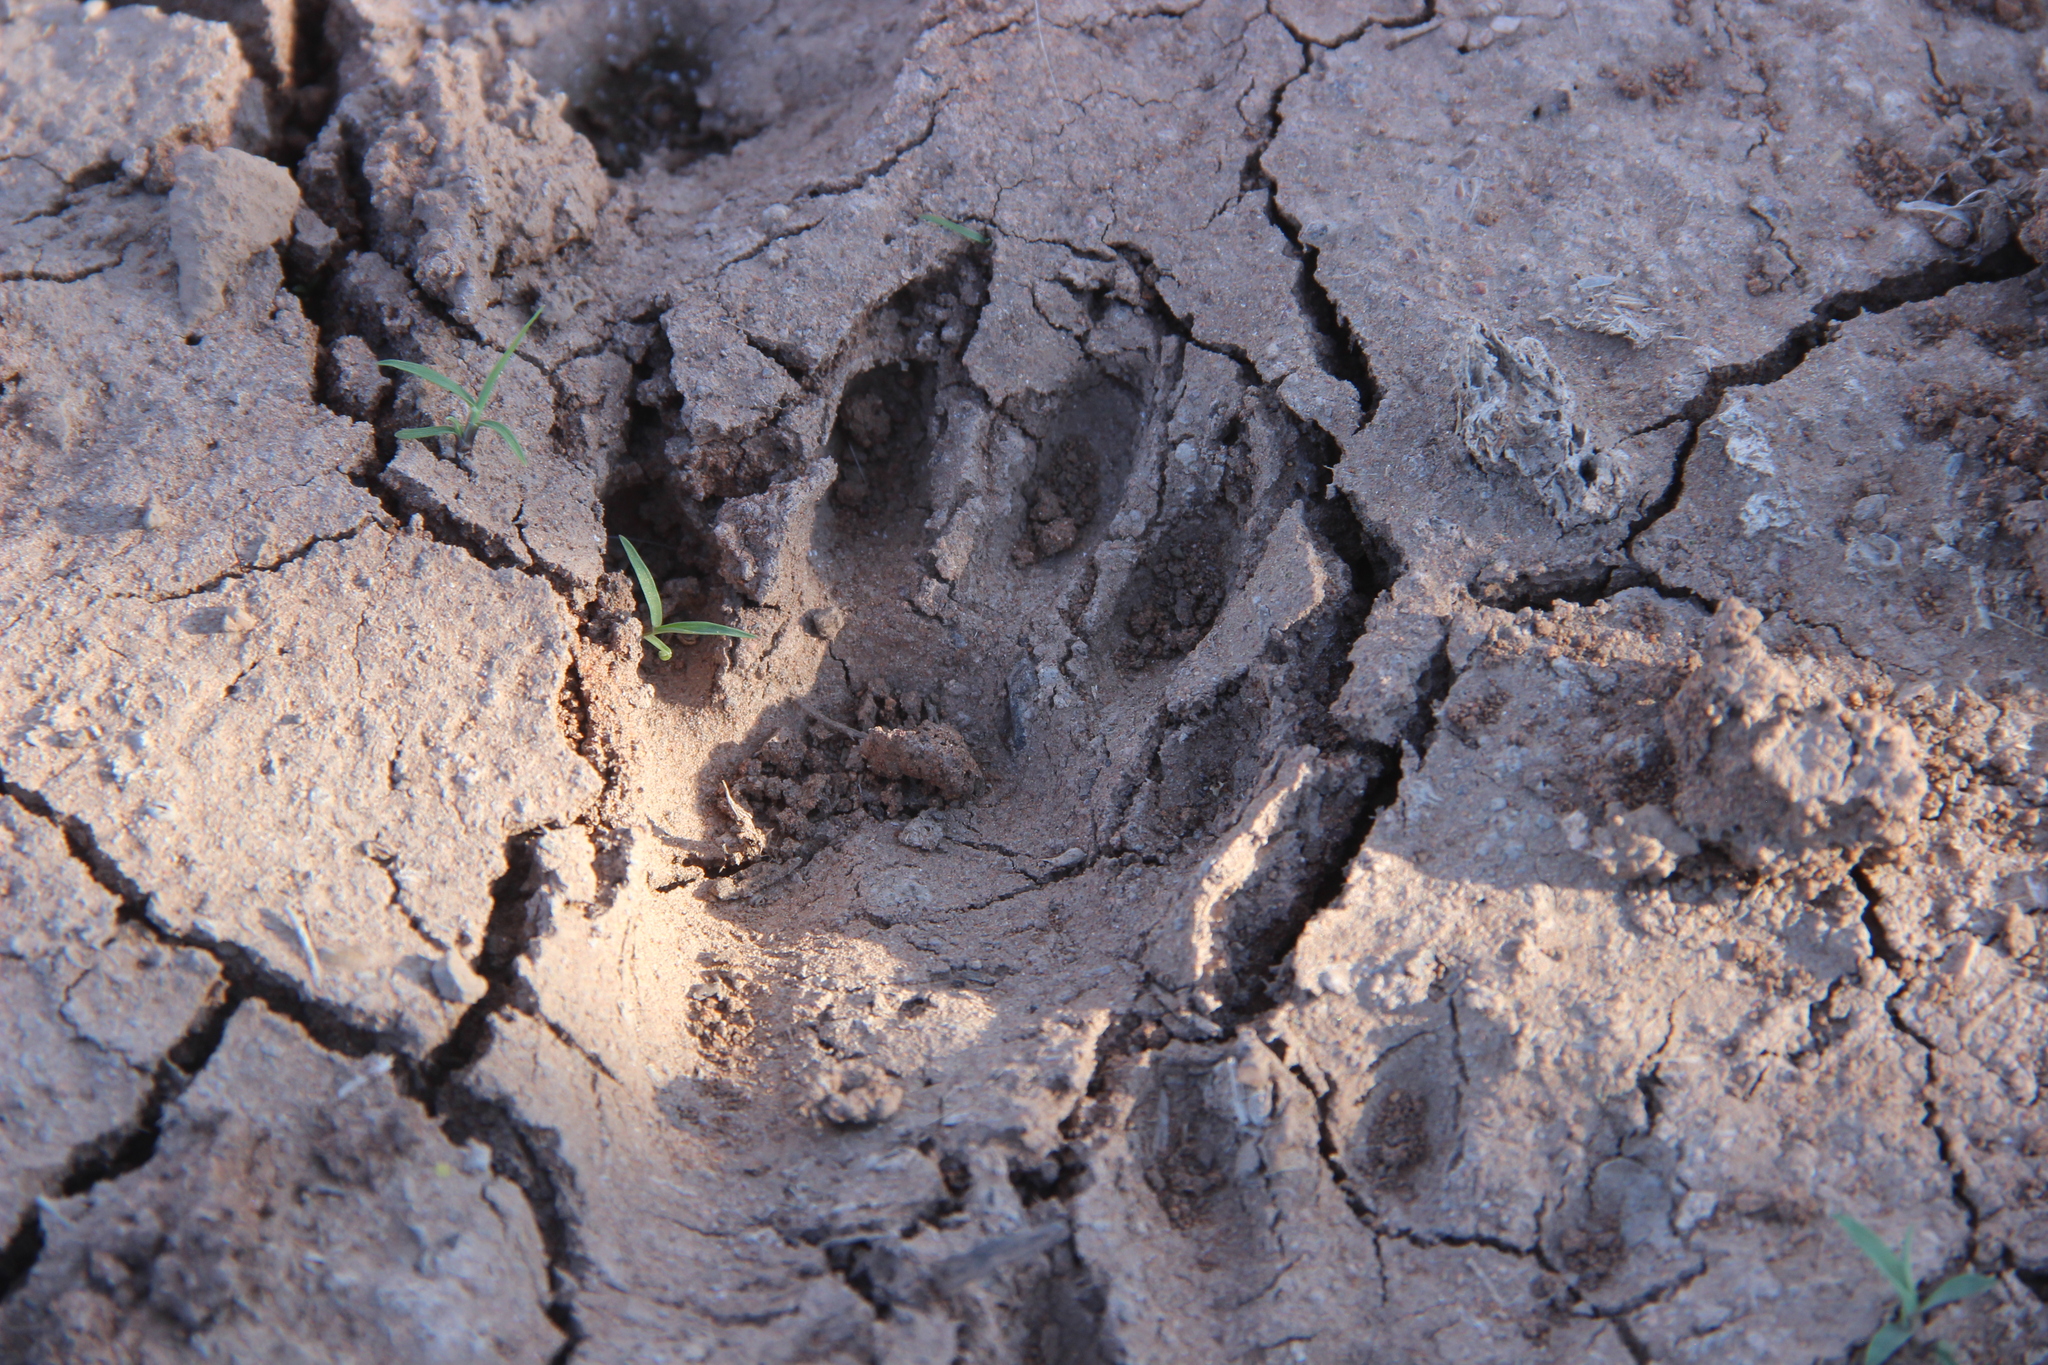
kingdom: Animalia
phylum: Chordata
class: Mammalia
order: Carnivora
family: Procyonidae
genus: Procyon
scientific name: Procyon lotor
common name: Raccoon
